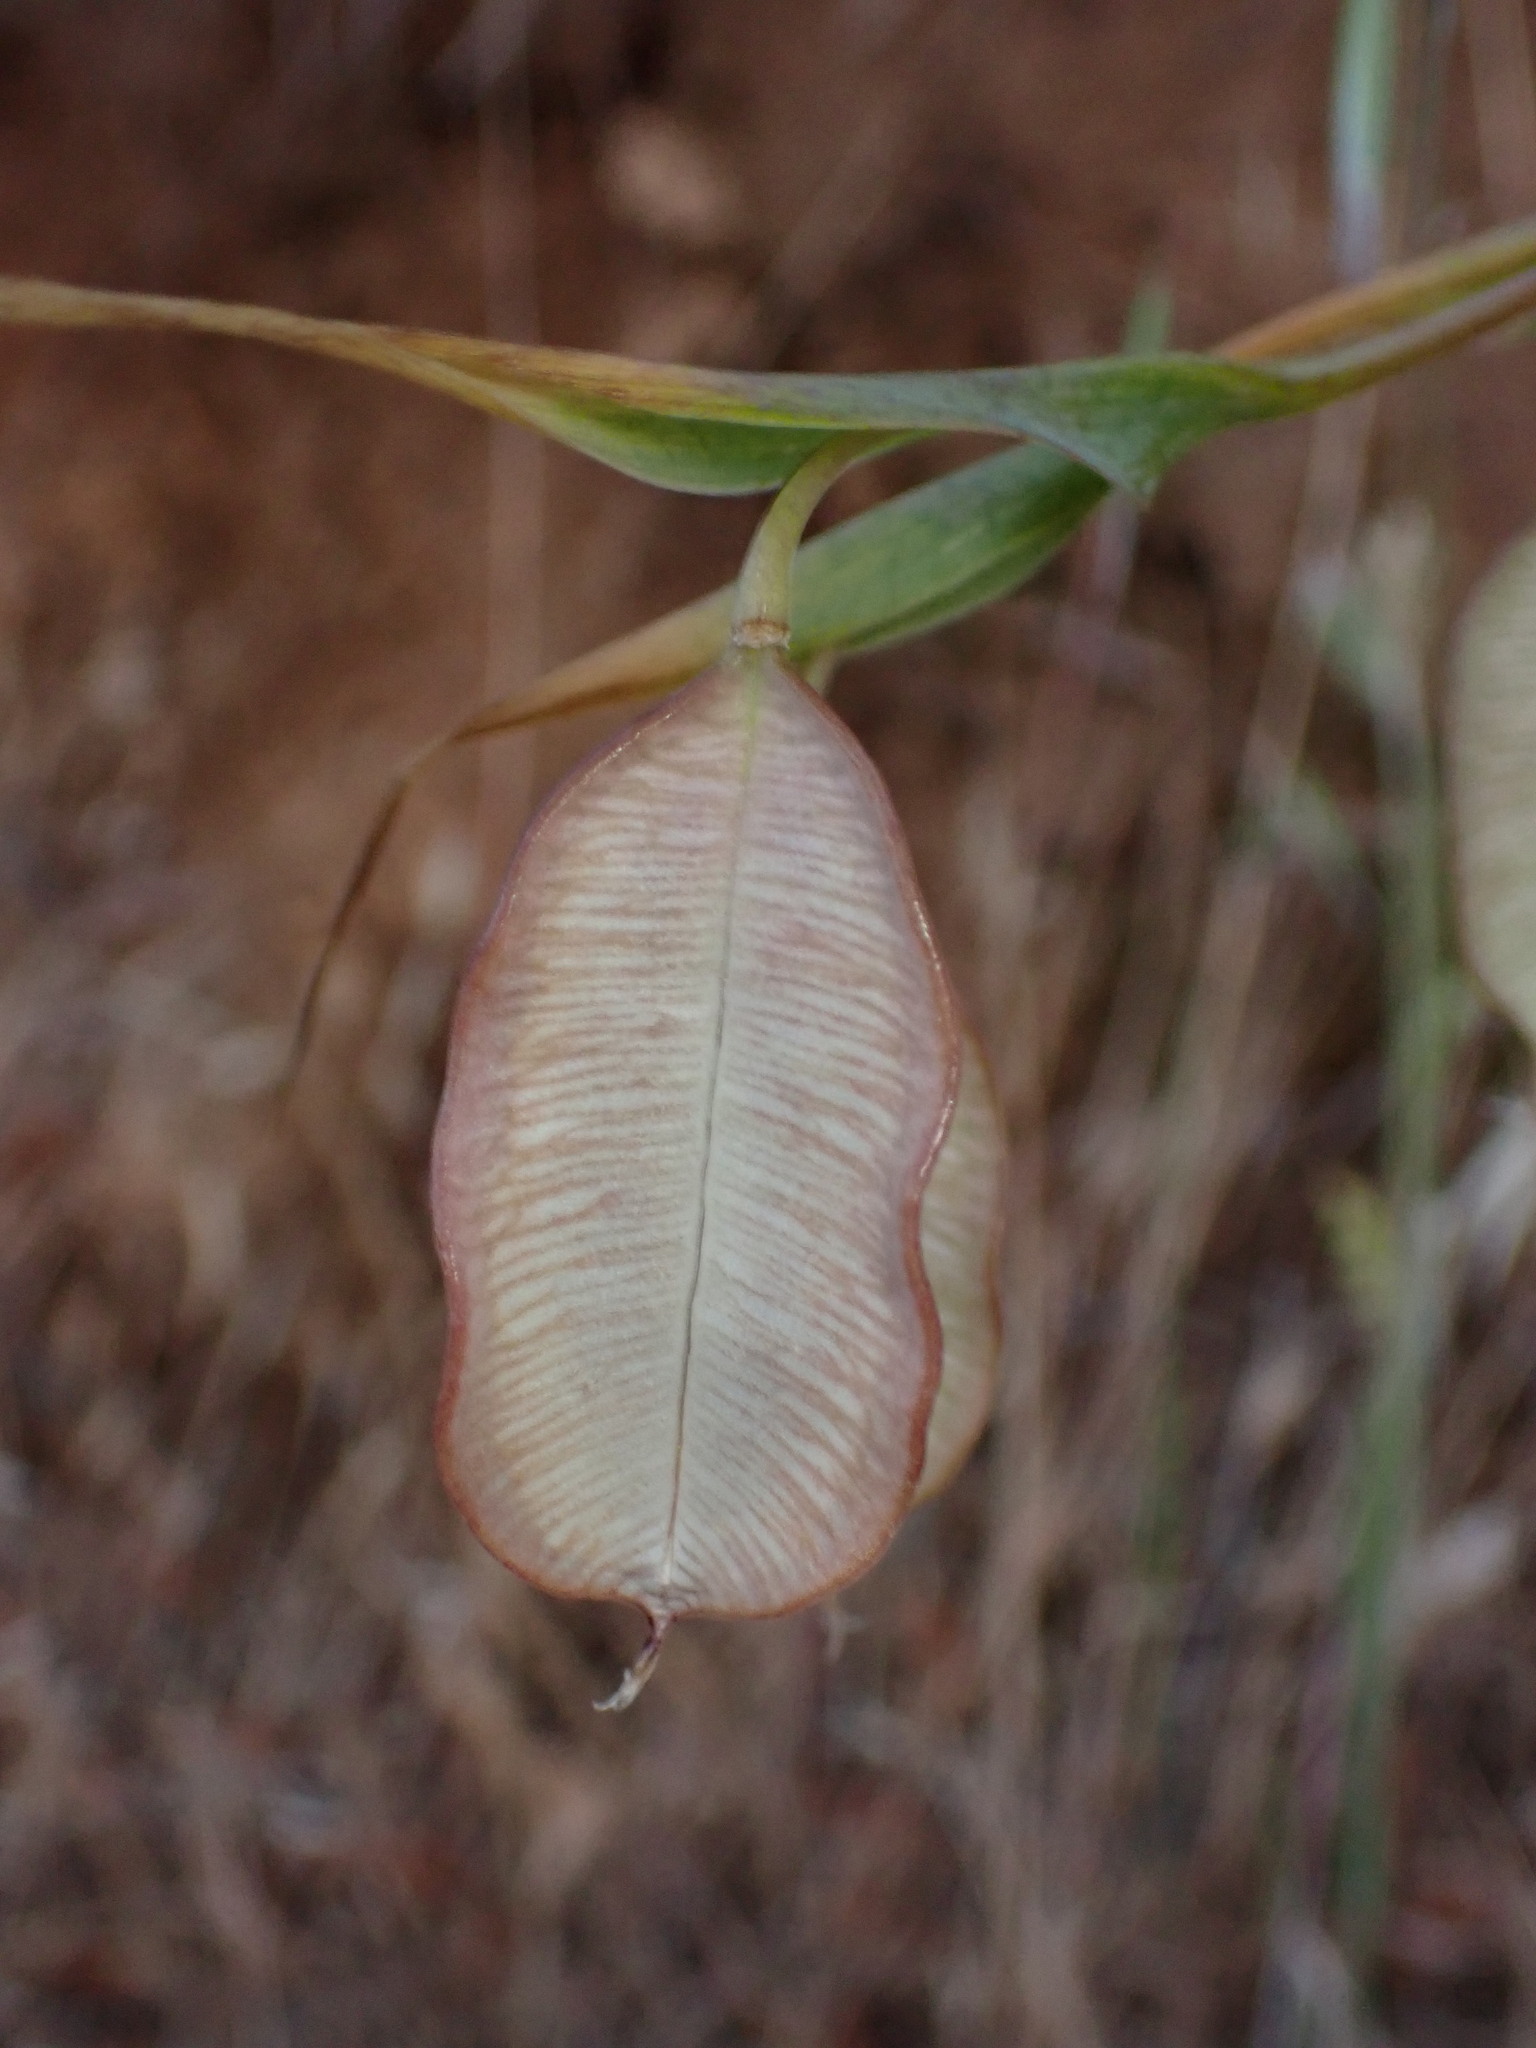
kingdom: Plantae
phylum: Tracheophyta
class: Liliopsida
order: Liliales
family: Liliaceae
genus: Calochortus
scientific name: Calochortus albus
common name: Fairy-lantern
